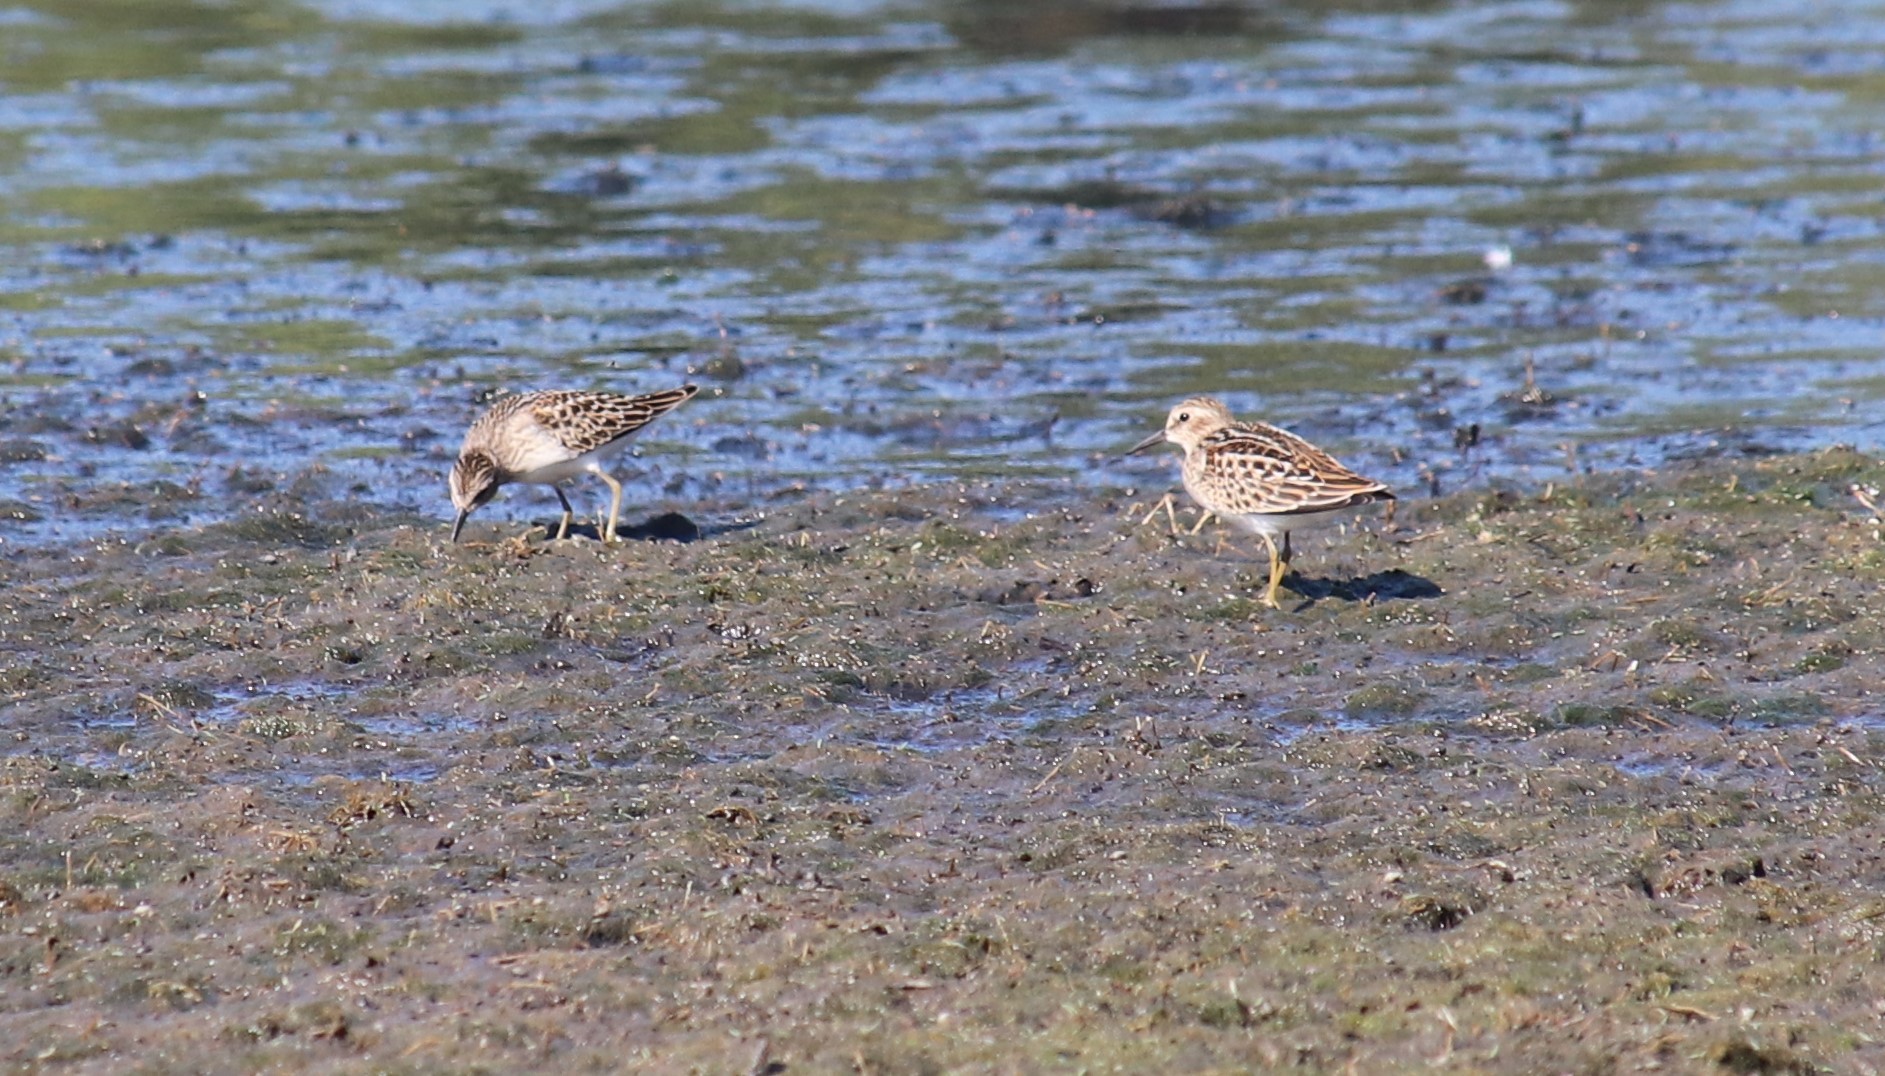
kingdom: Animalia
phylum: Chordata
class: Aves
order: Charadriiformes
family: Scolopacidae
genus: Calidris
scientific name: Calidris minutilla
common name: Least sandpiper
